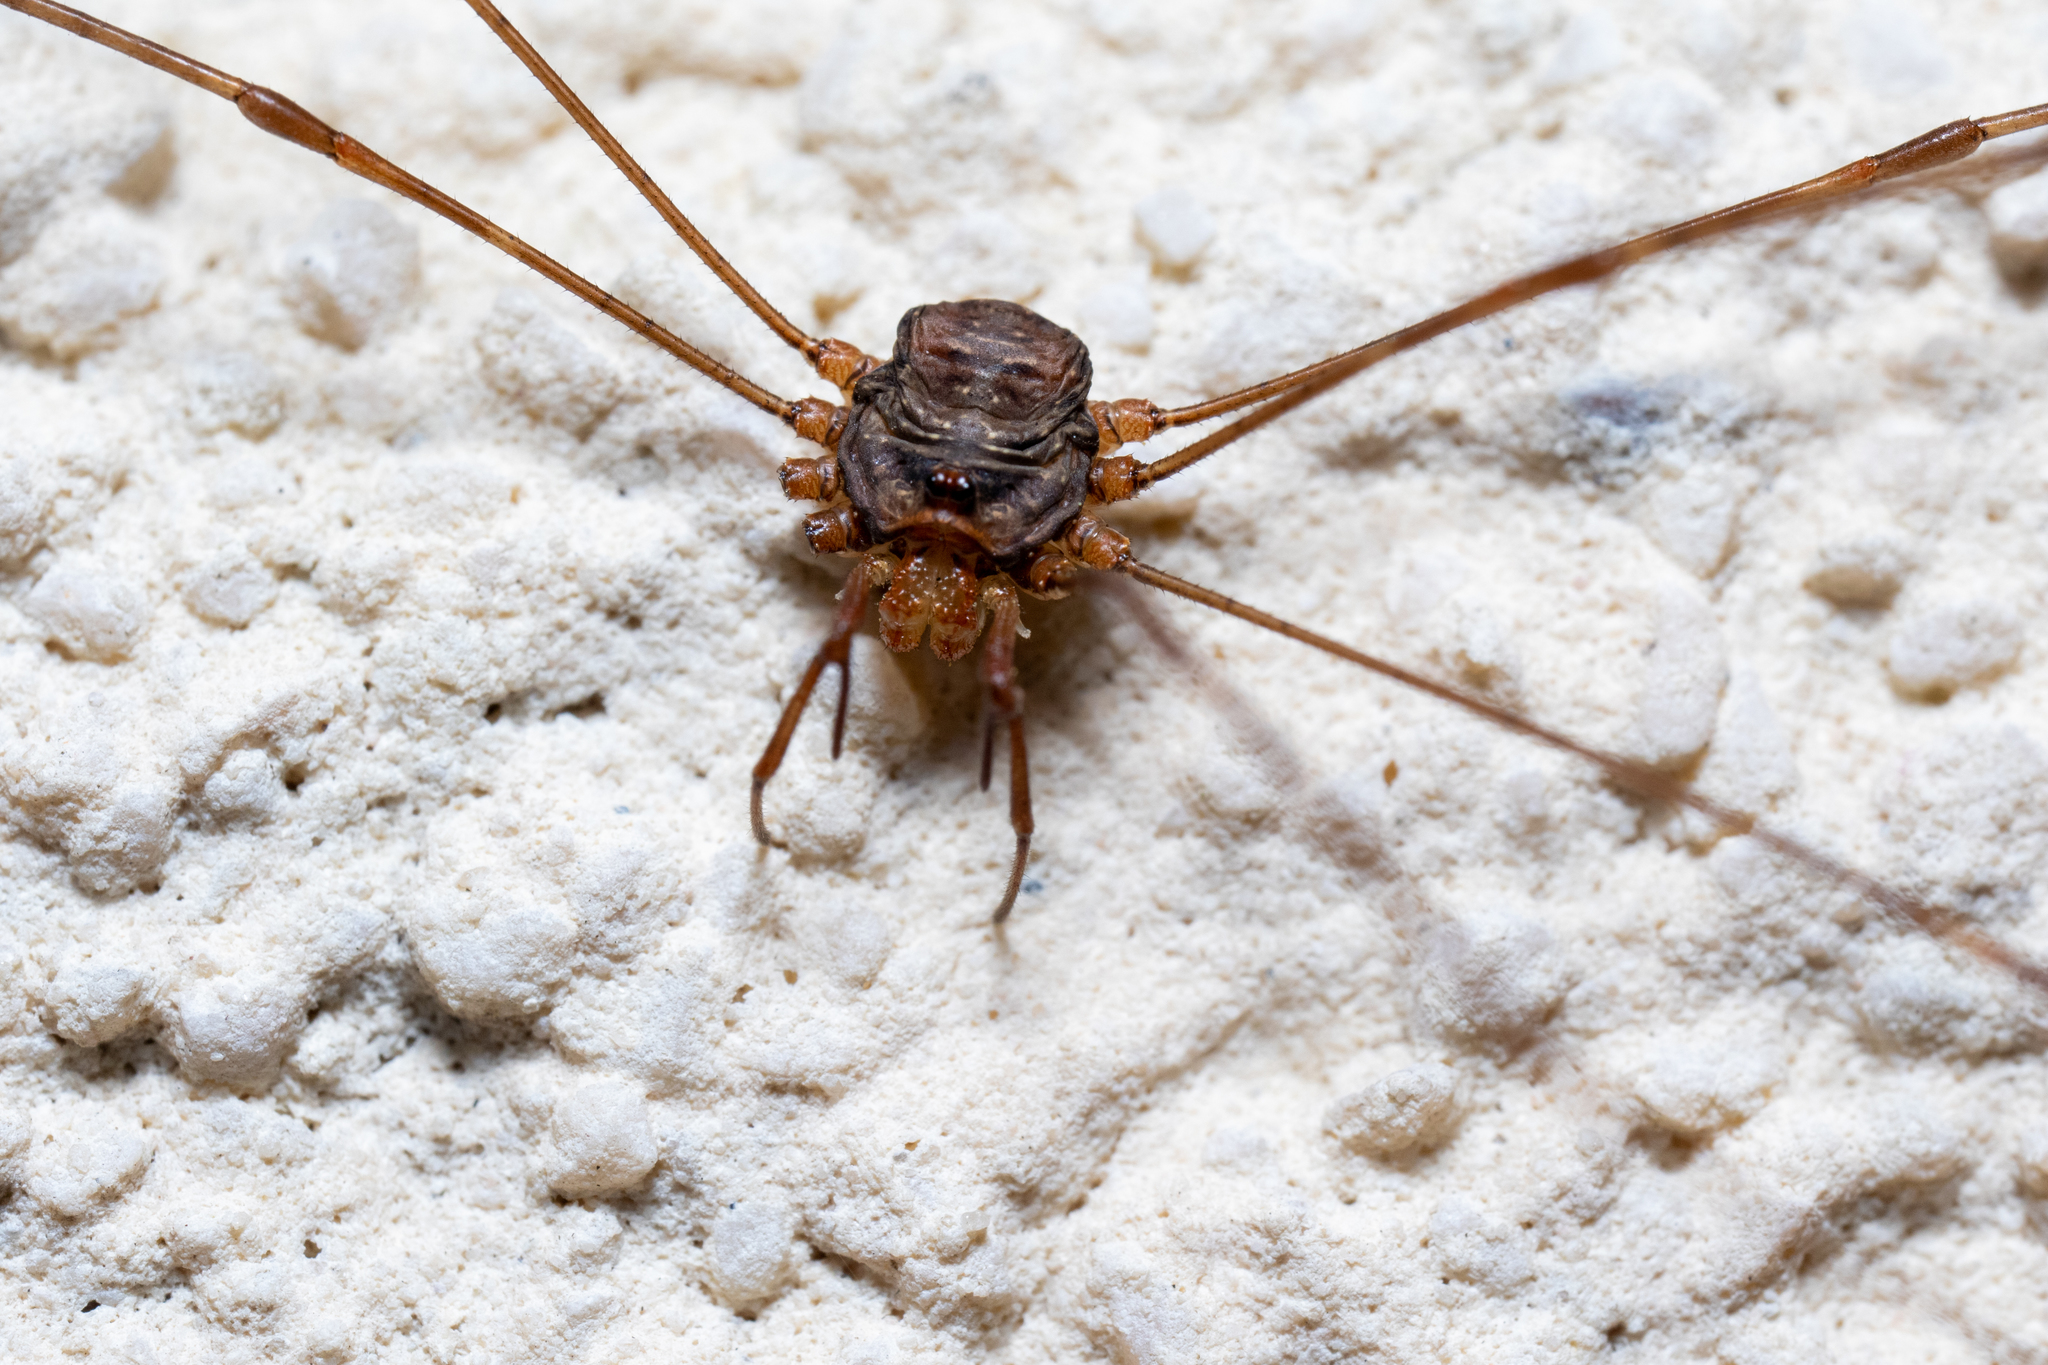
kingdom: Animalia
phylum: Arthropoda
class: Arachnida
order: Opiliones
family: Phalangiidae
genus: Dicranopalpus
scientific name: Dicranopalpus ramosus
